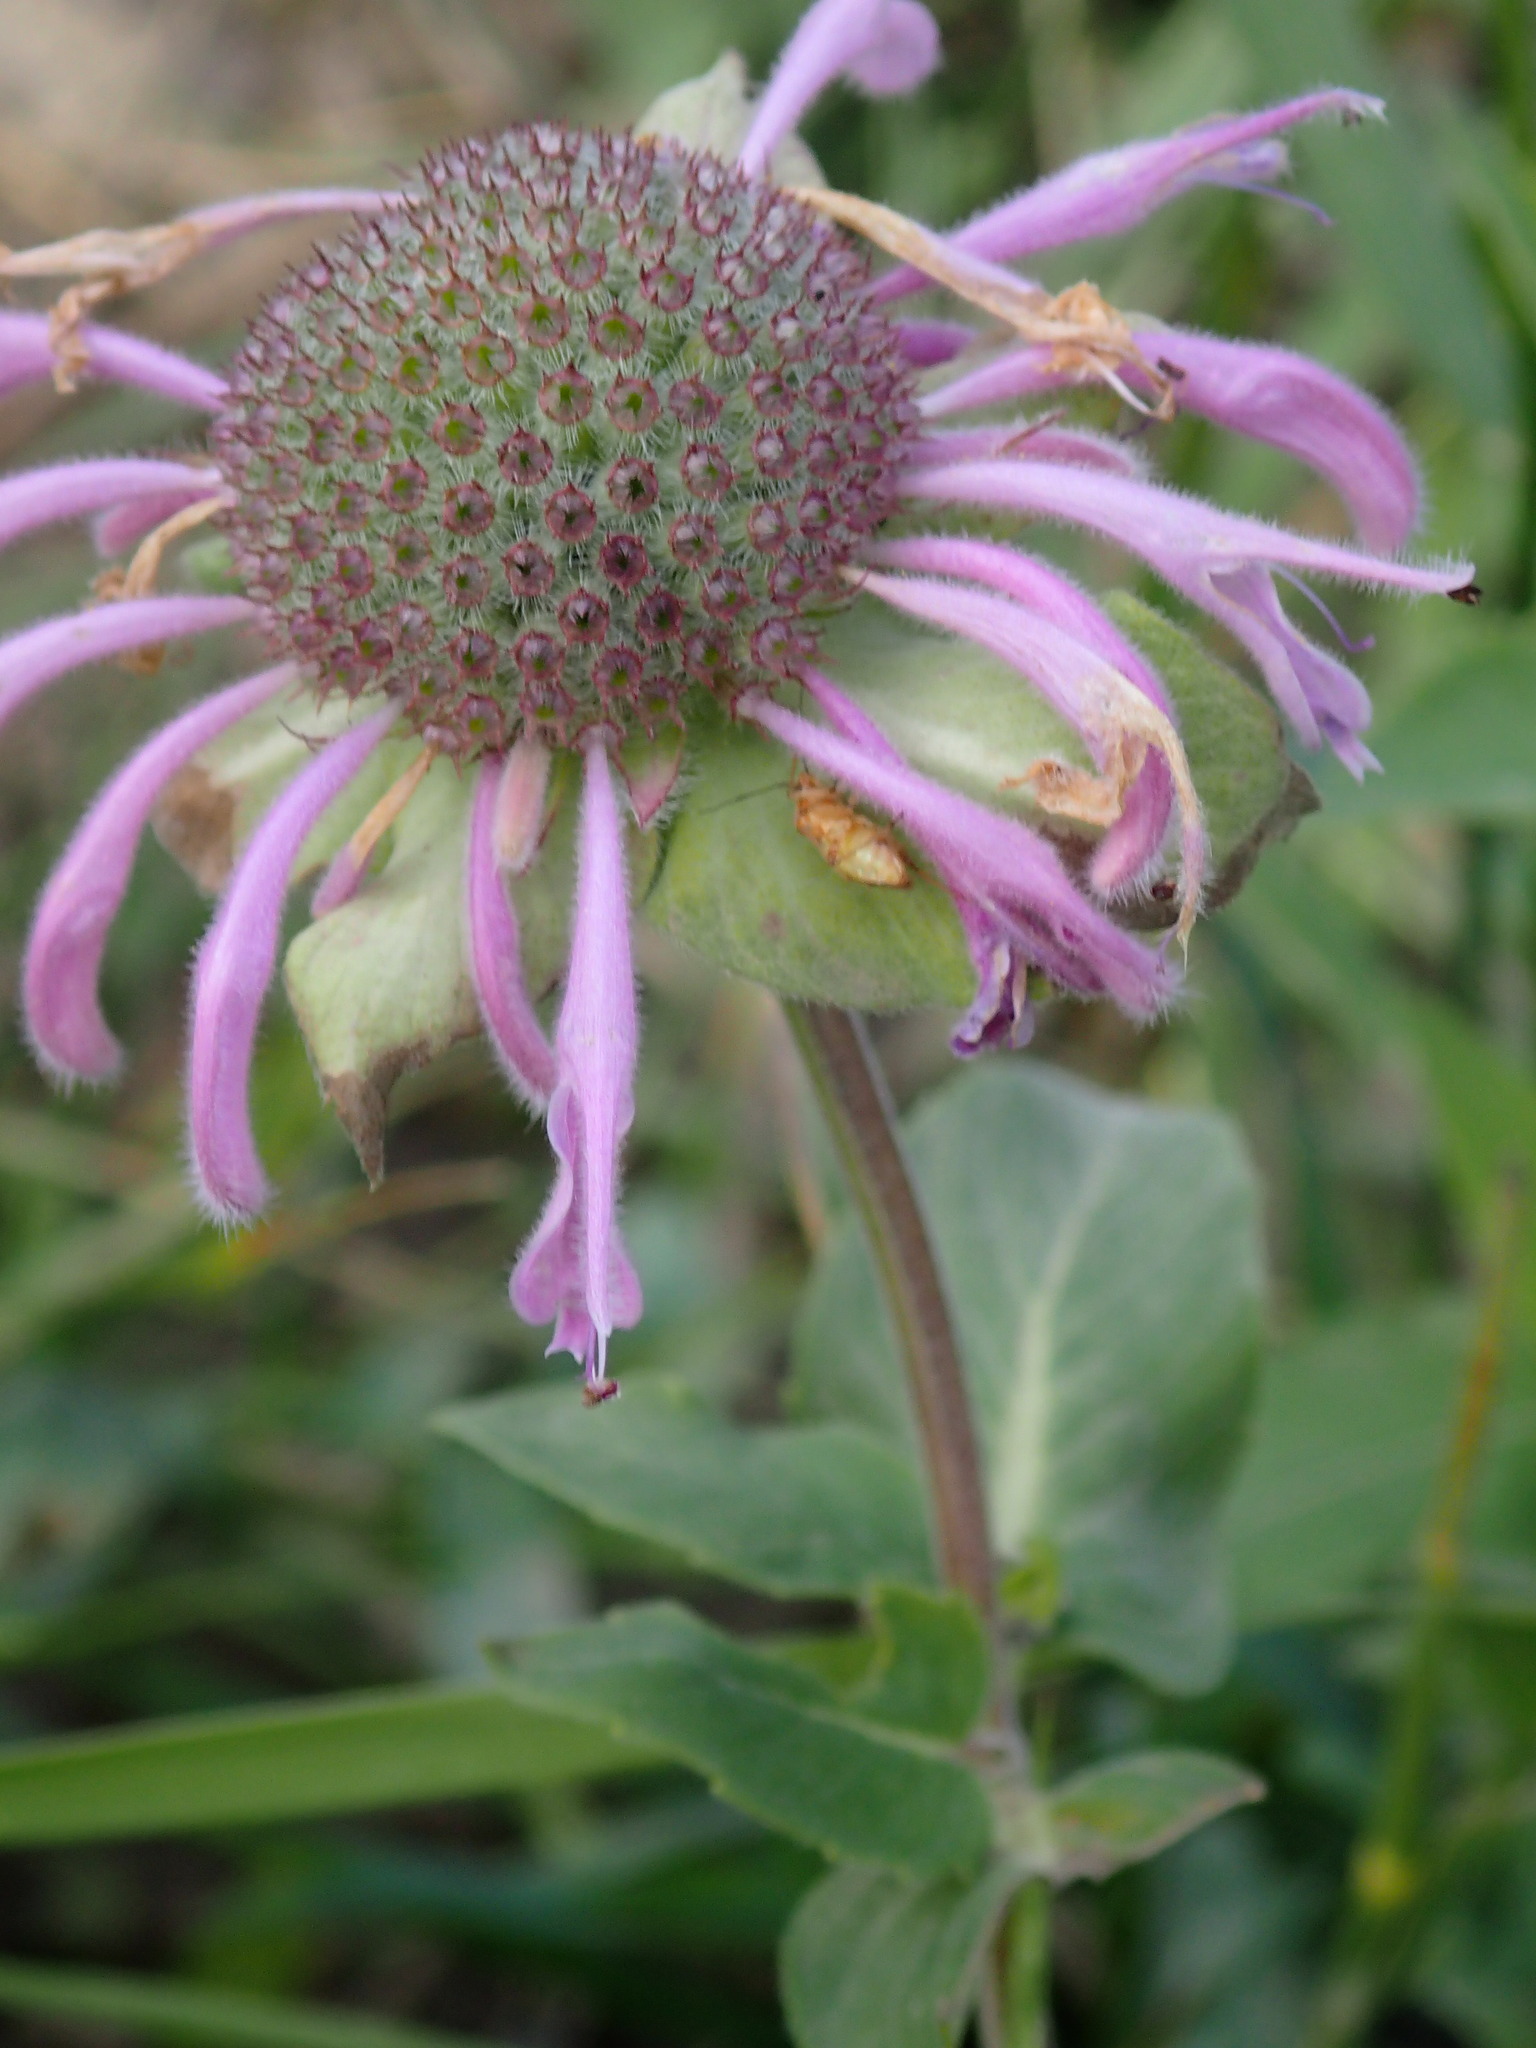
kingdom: Plantae
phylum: Tracheophyta
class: Magnoliopsida
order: Lamiales
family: Lamiaceae
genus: Monarda
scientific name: Monarda fistulosa
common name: Purple beebalm
